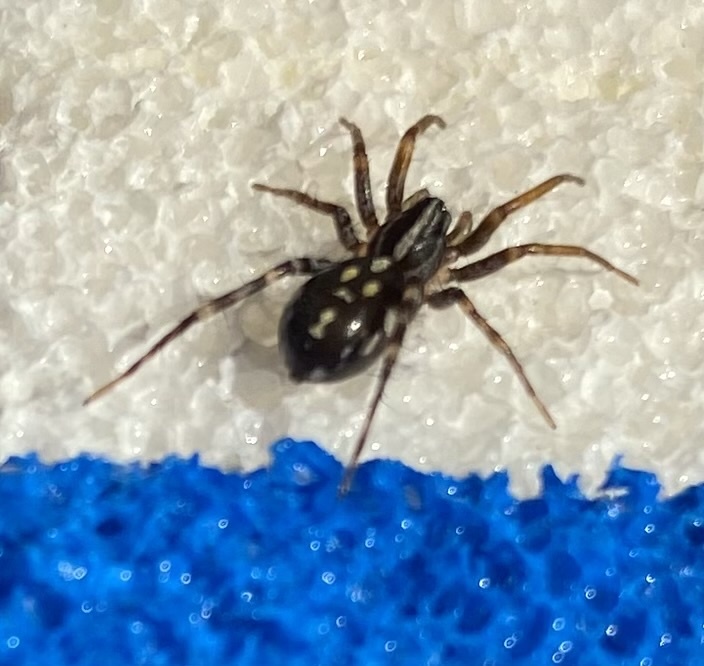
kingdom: Animalia
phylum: Arthropoda
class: Arachnida
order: Araneae
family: Corinnidae
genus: Nyssus
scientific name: Nyssus coloripes
